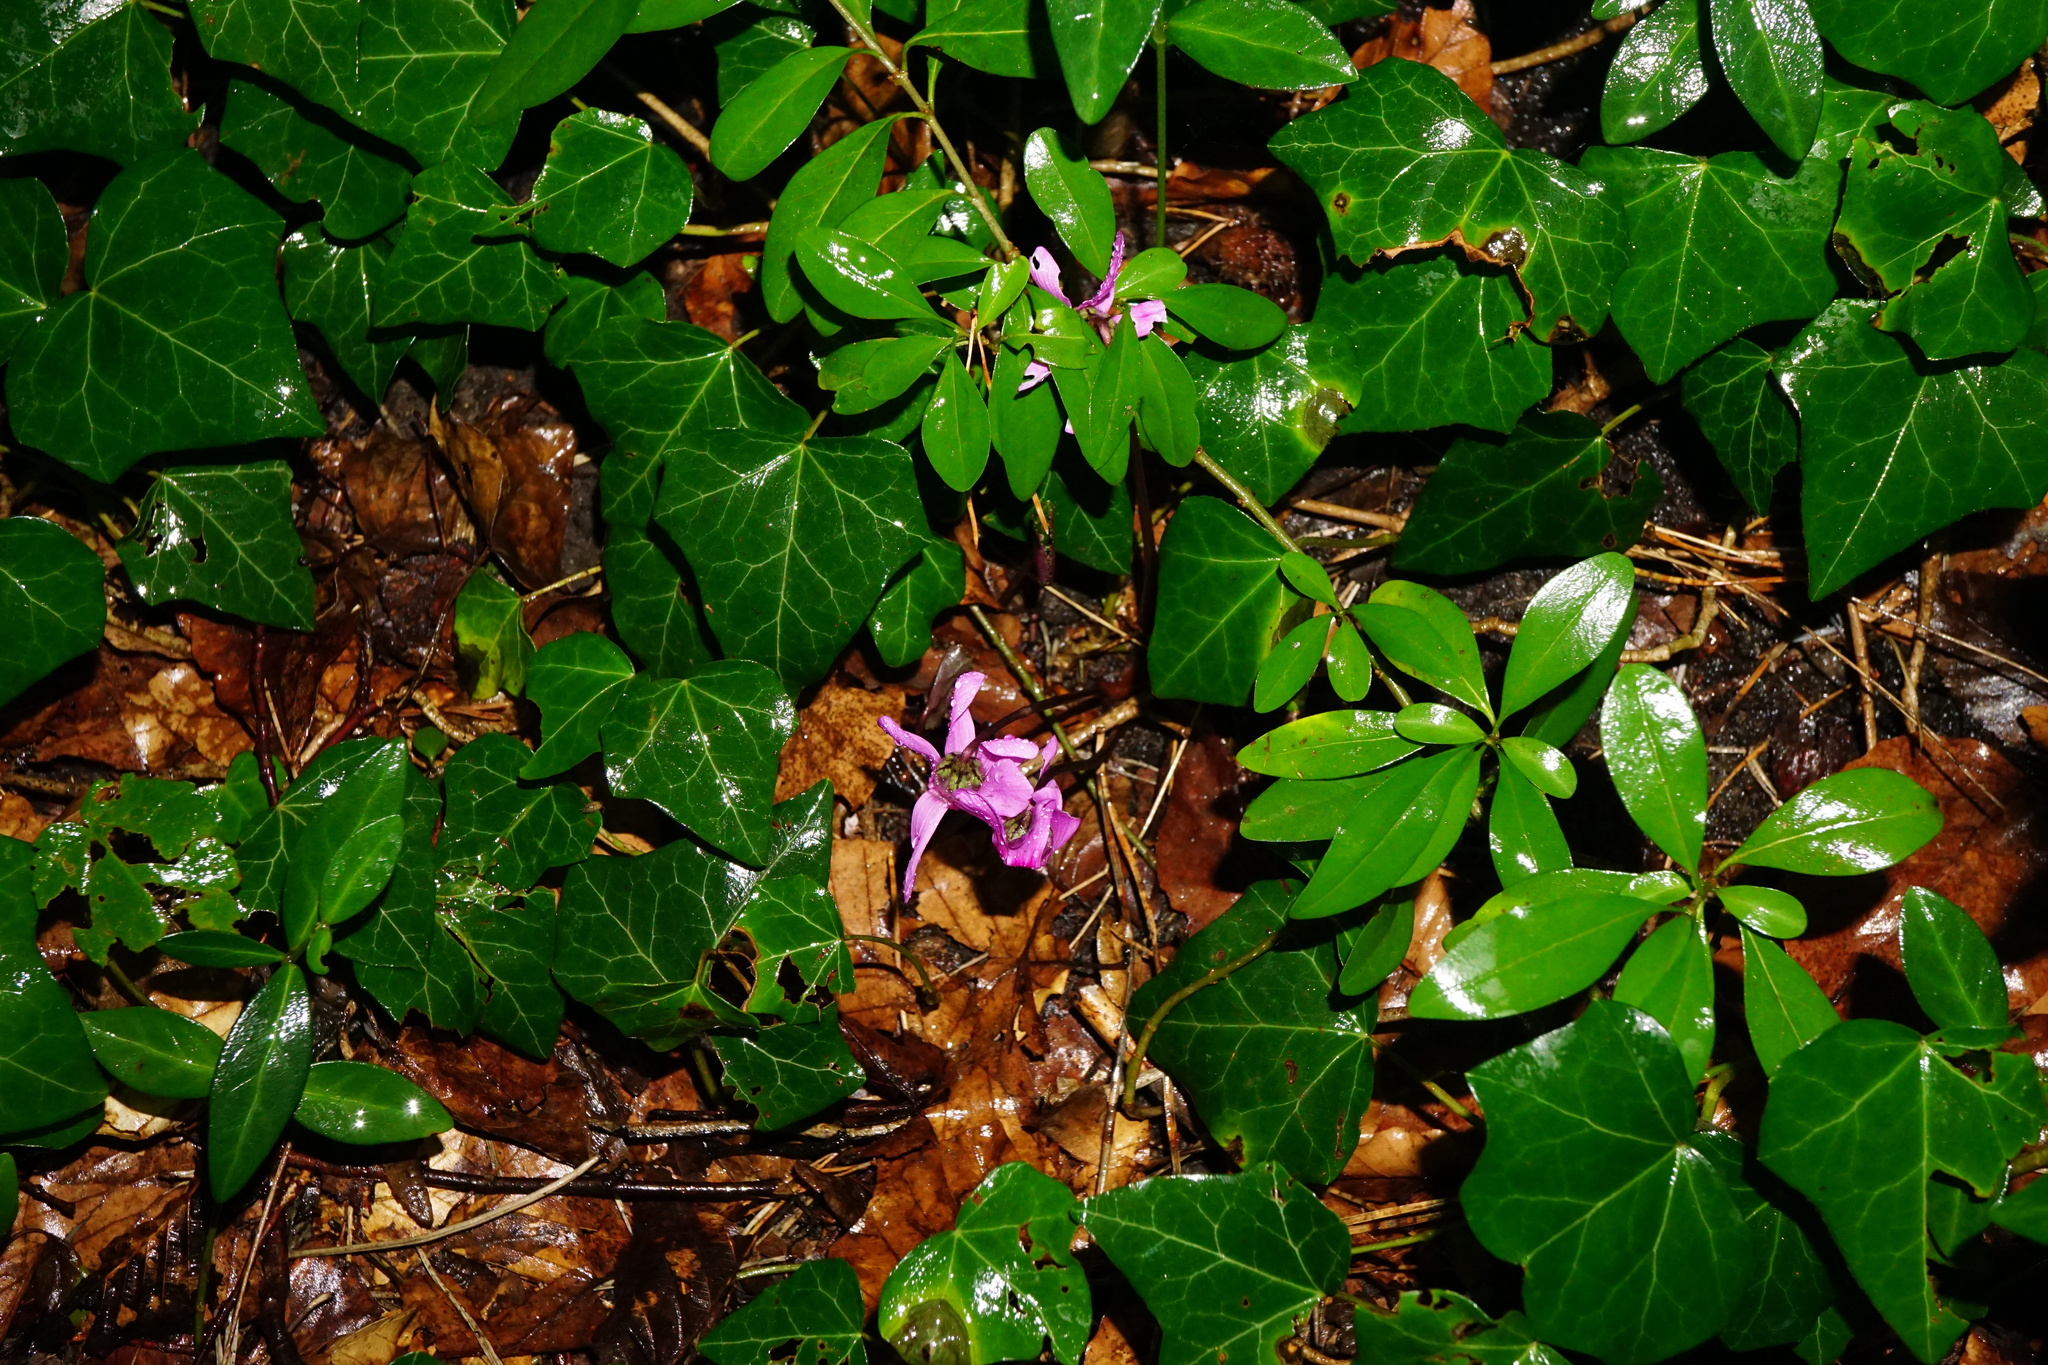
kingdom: Plantae
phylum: Tracheophyta
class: Magnoliopsida
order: Ericales
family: Primulaceae
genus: Cyclamen
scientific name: Cyclamen purpurascens
